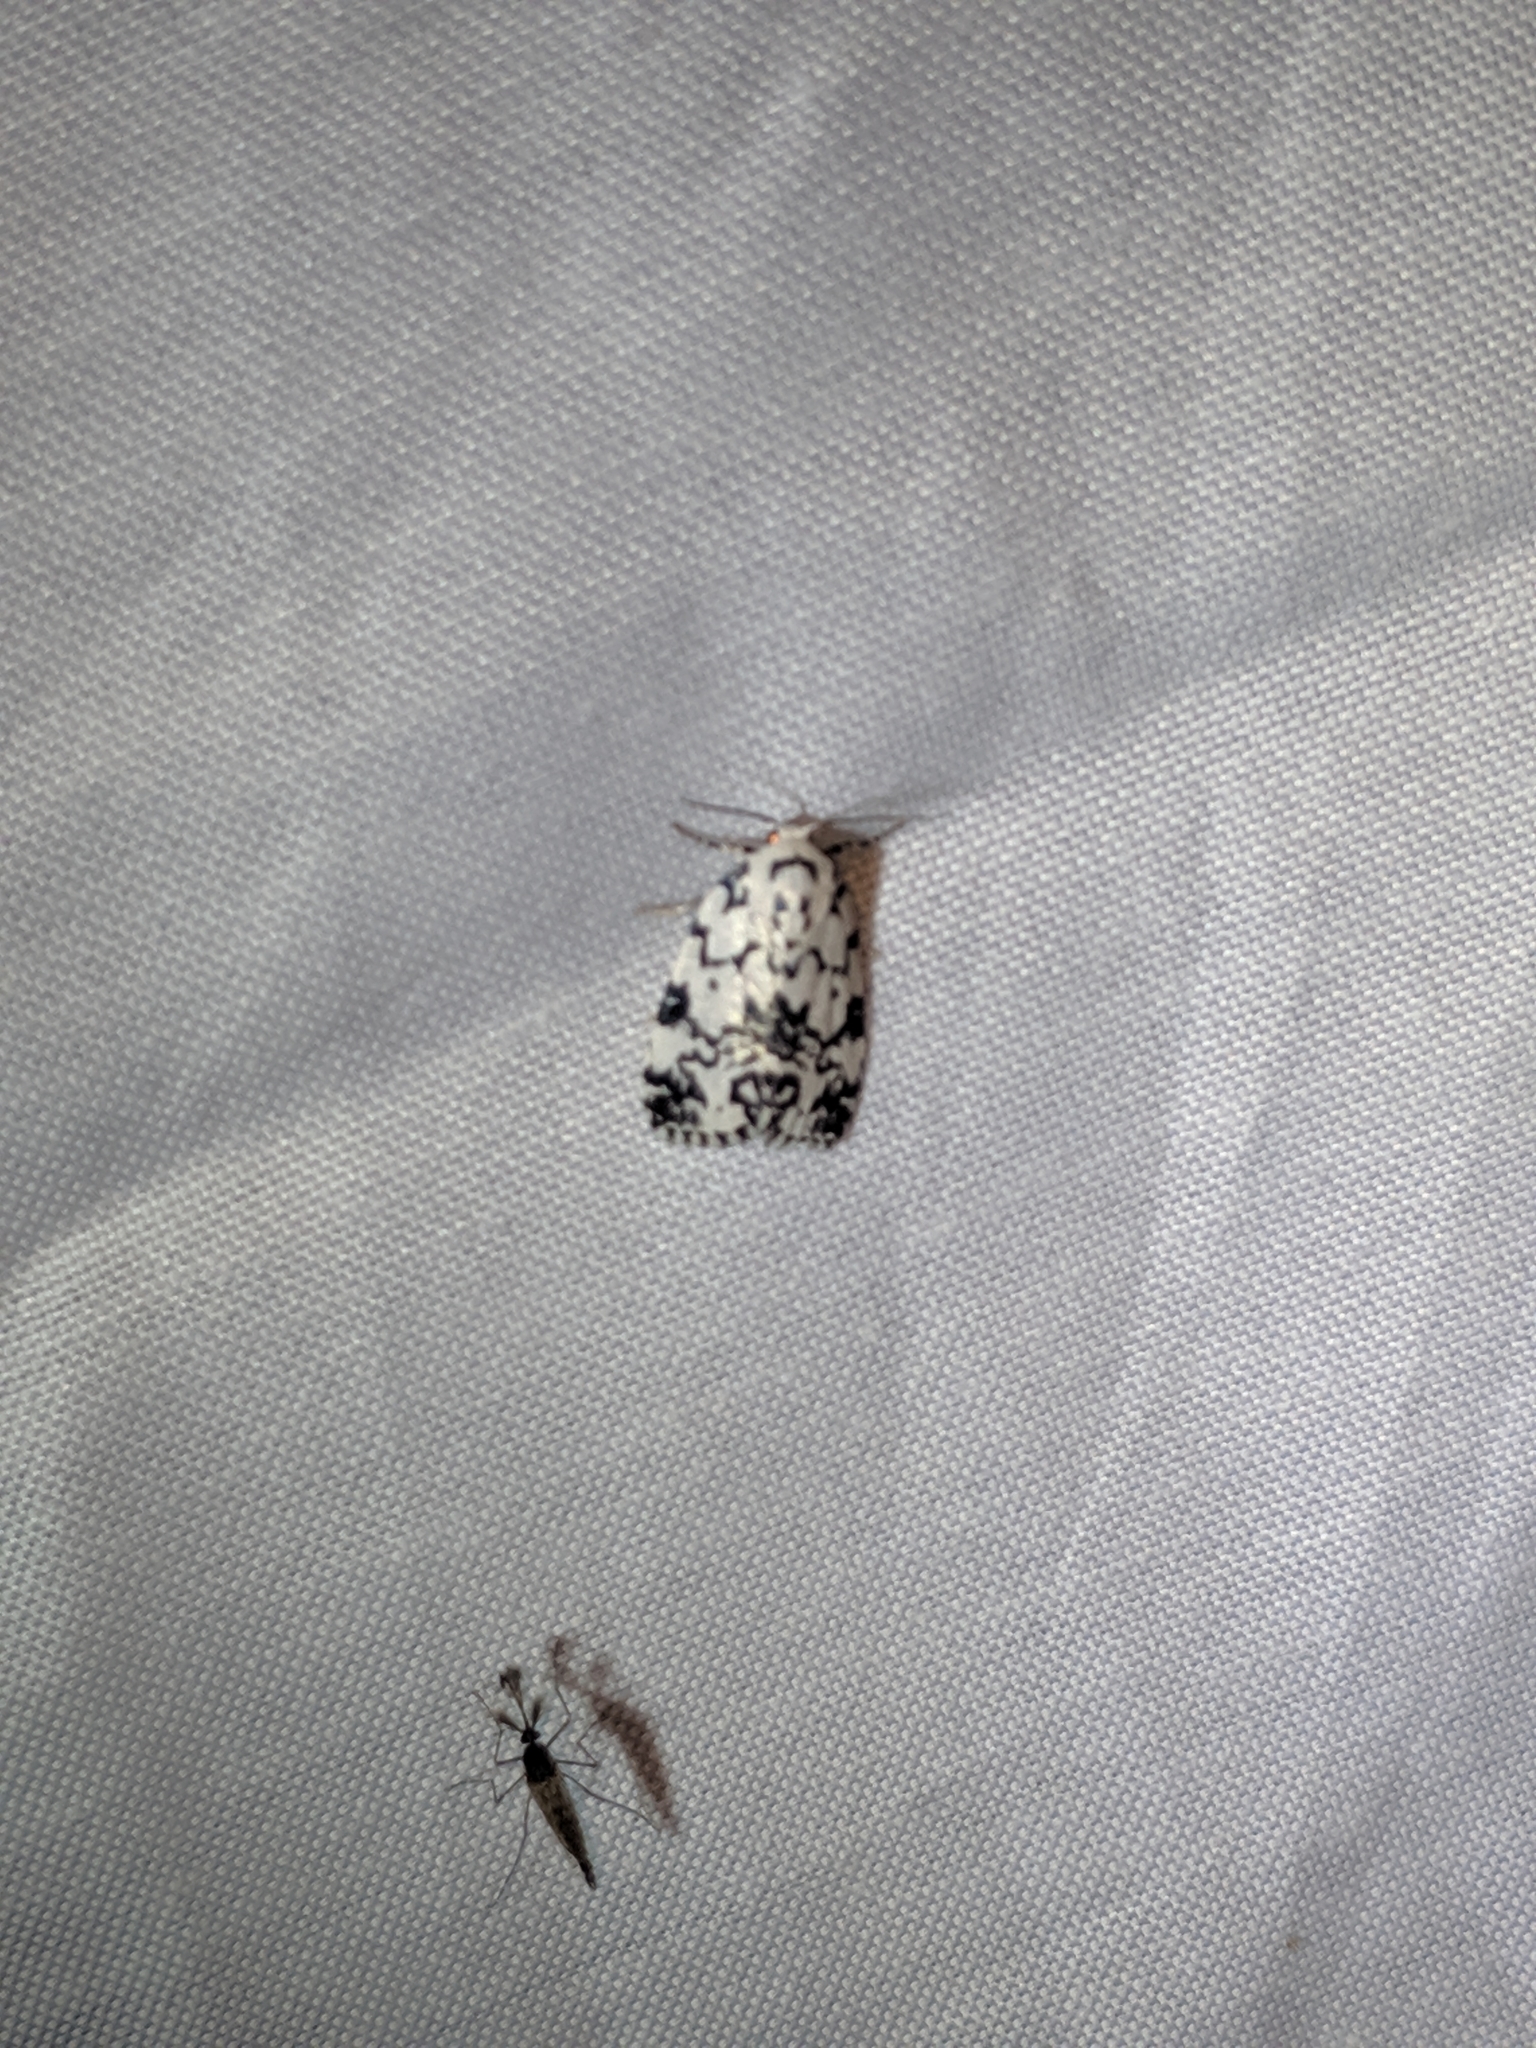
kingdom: Animalia
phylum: Arthropoda
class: Insecta
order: Lepidoptera
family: Noctuidae
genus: Polygrammate
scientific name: Polygrammate hebraeicum
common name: Hebrew moth
